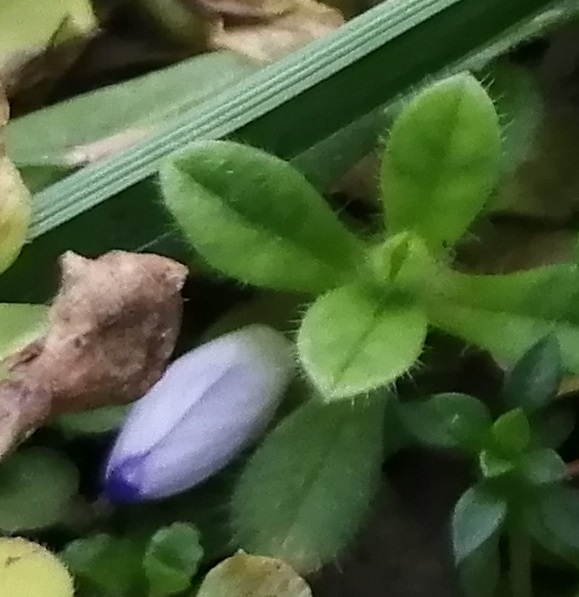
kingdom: Plantae
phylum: Tracheophyta
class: Magnoliopsida
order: Lamiales
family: Plantaginaceae
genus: Veronica
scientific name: Veronica persica
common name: Common field-speedwell
